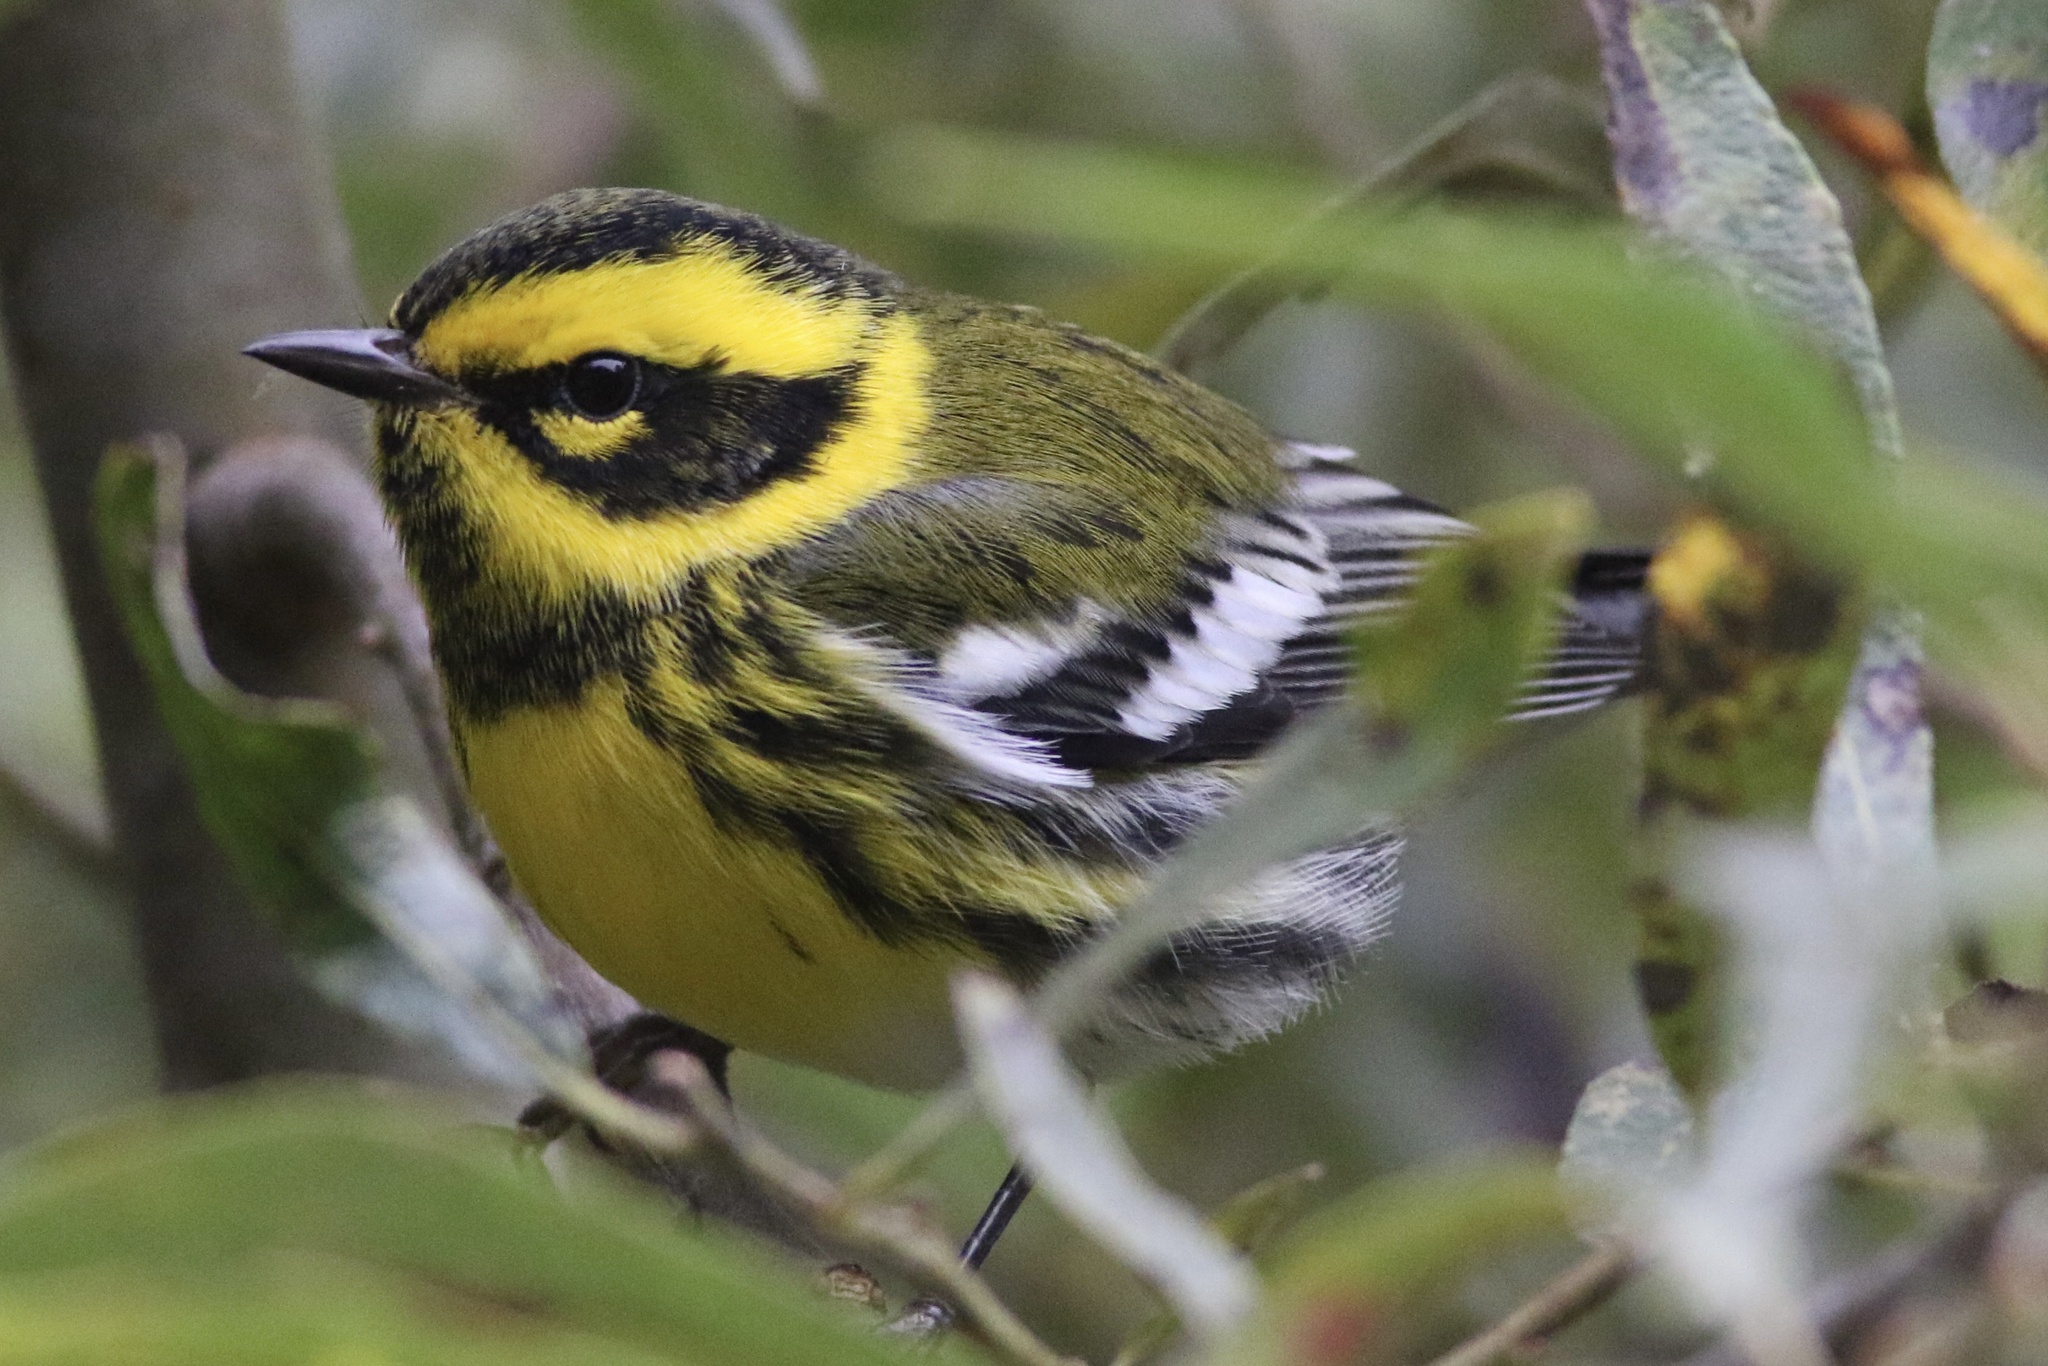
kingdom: Animalia
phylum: Chordata
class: Aves
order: Passeriformes
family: Parulidae
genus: Setophaga
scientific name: Setophaga townsendi
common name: Townsend's warbler
